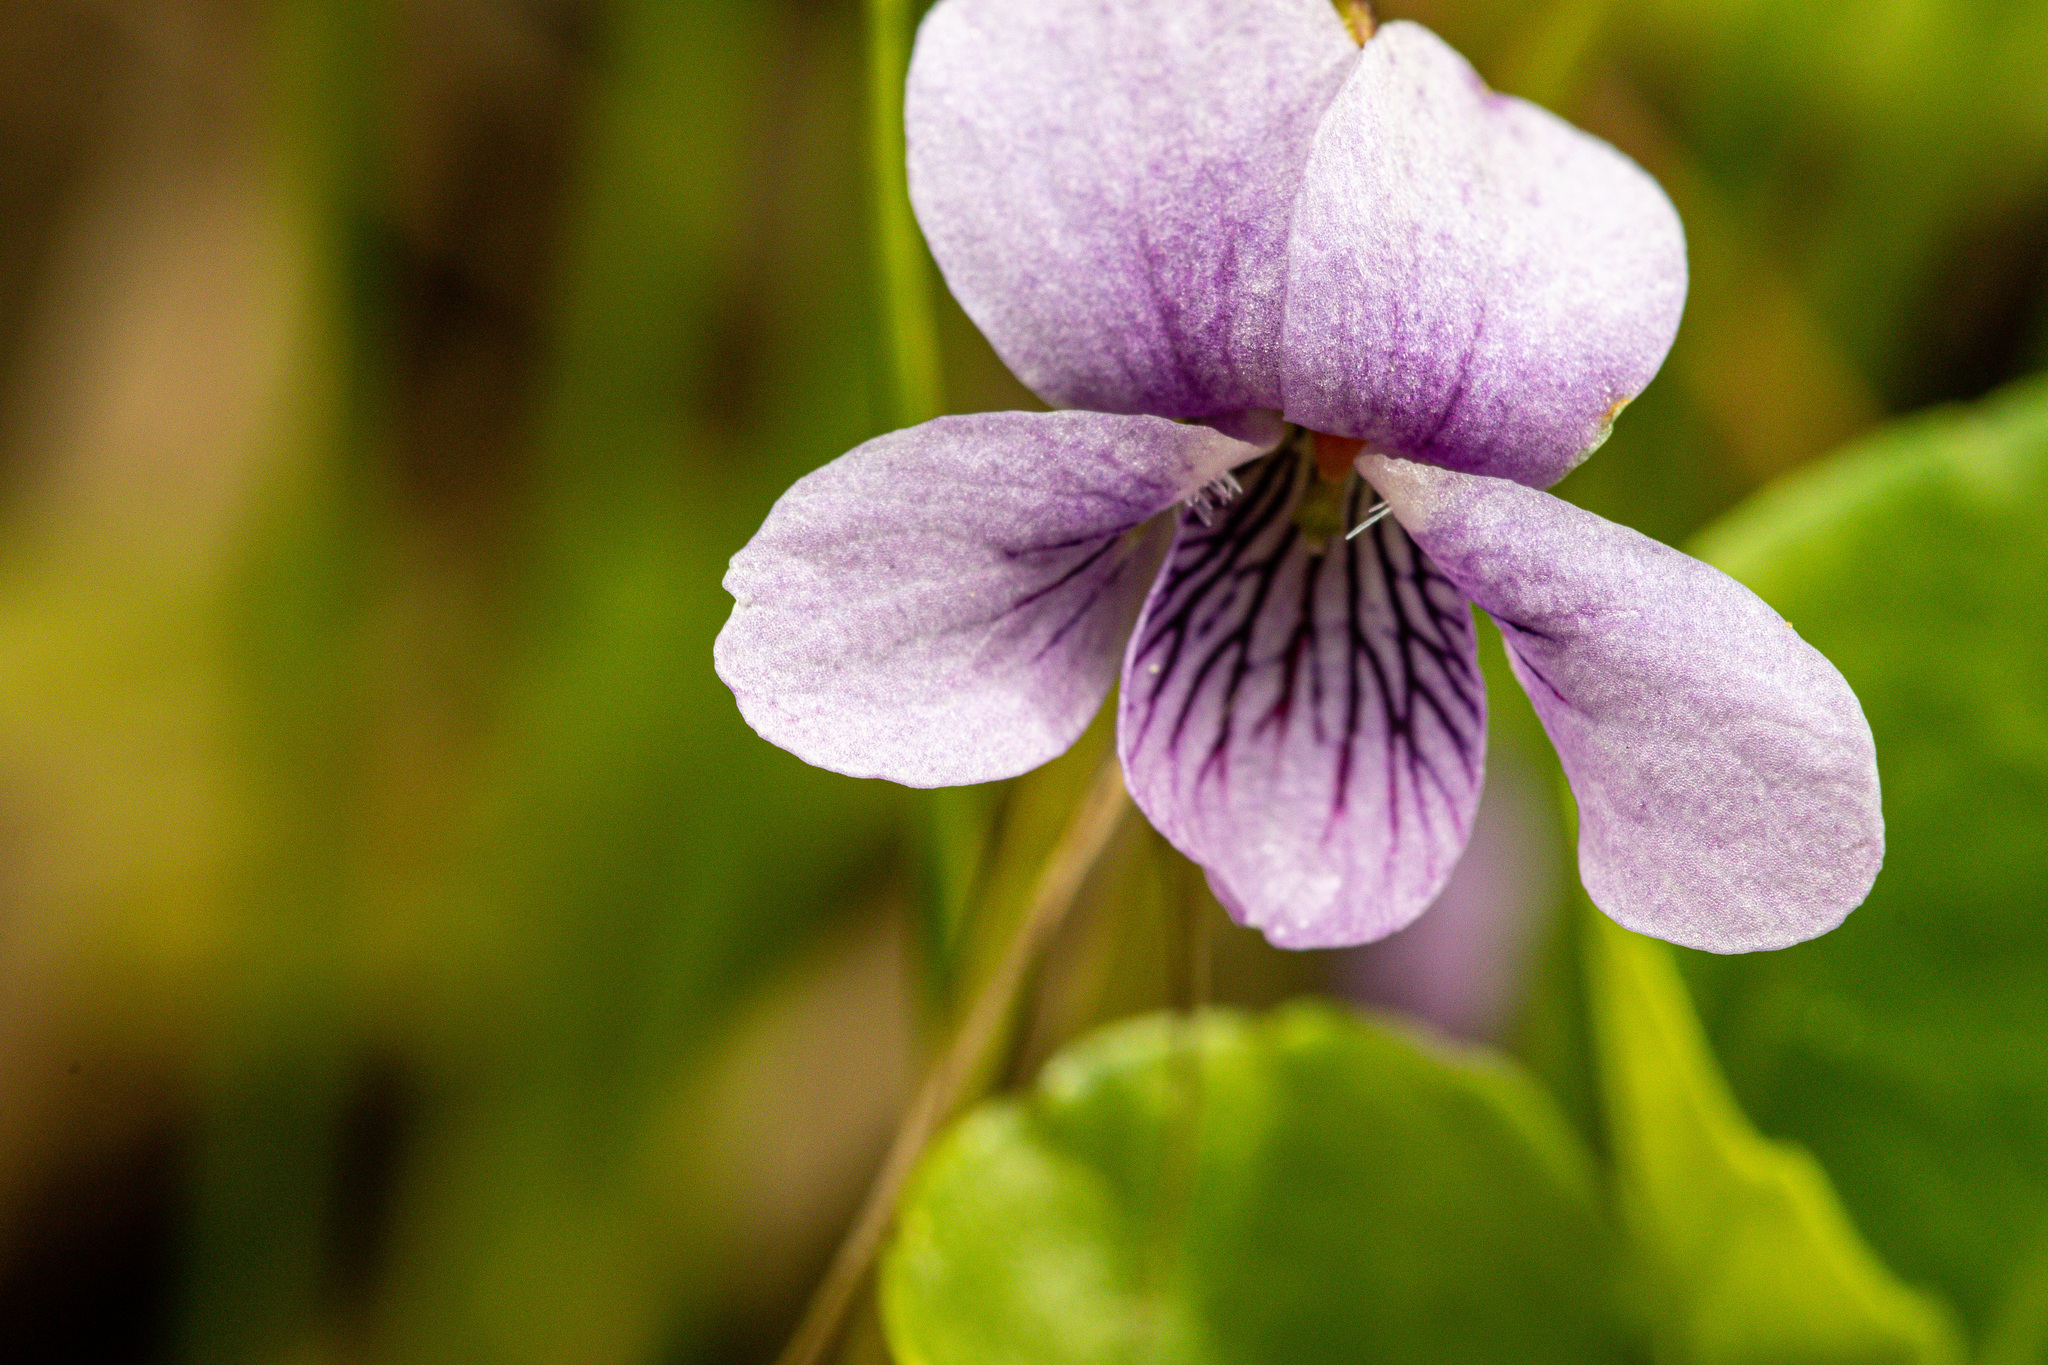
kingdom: Plantae
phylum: Tracheophyta
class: Magnoliopsida
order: Malpighiales
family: Violaceae
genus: Viola
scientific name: Viola palustris
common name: Marsh violet
